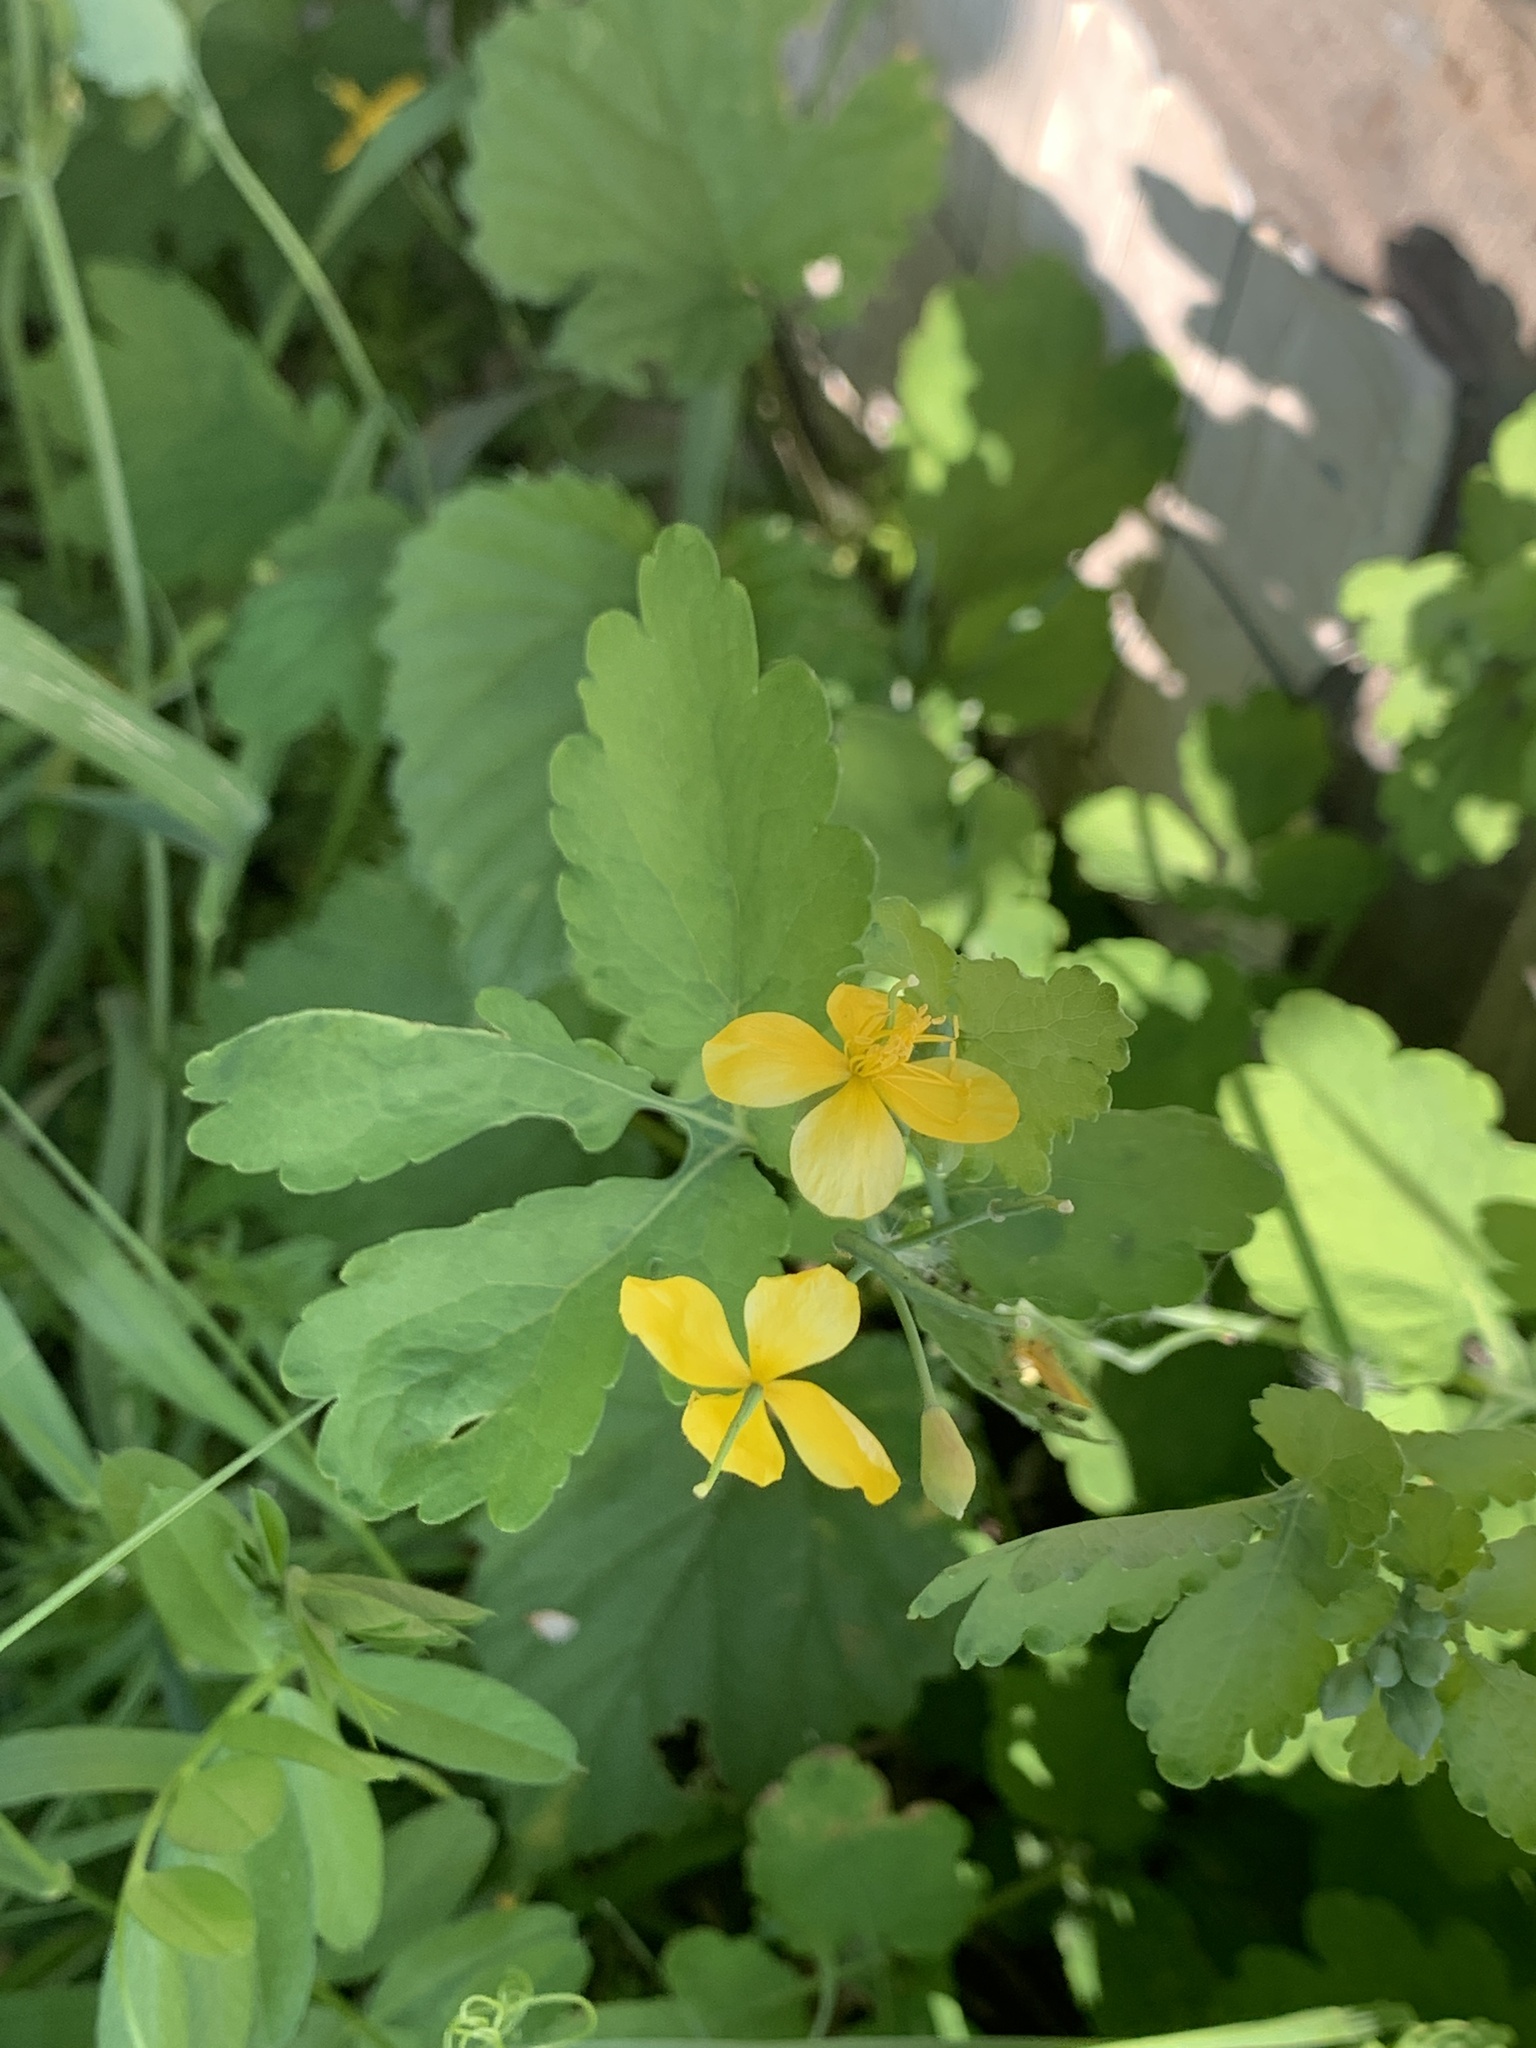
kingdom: Plantae
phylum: Tracheophyta
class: Magnoliopsida
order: Ranunculales
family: Papaveraceae
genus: Chelidonium
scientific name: Chelidonium majus
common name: Greater celandine
